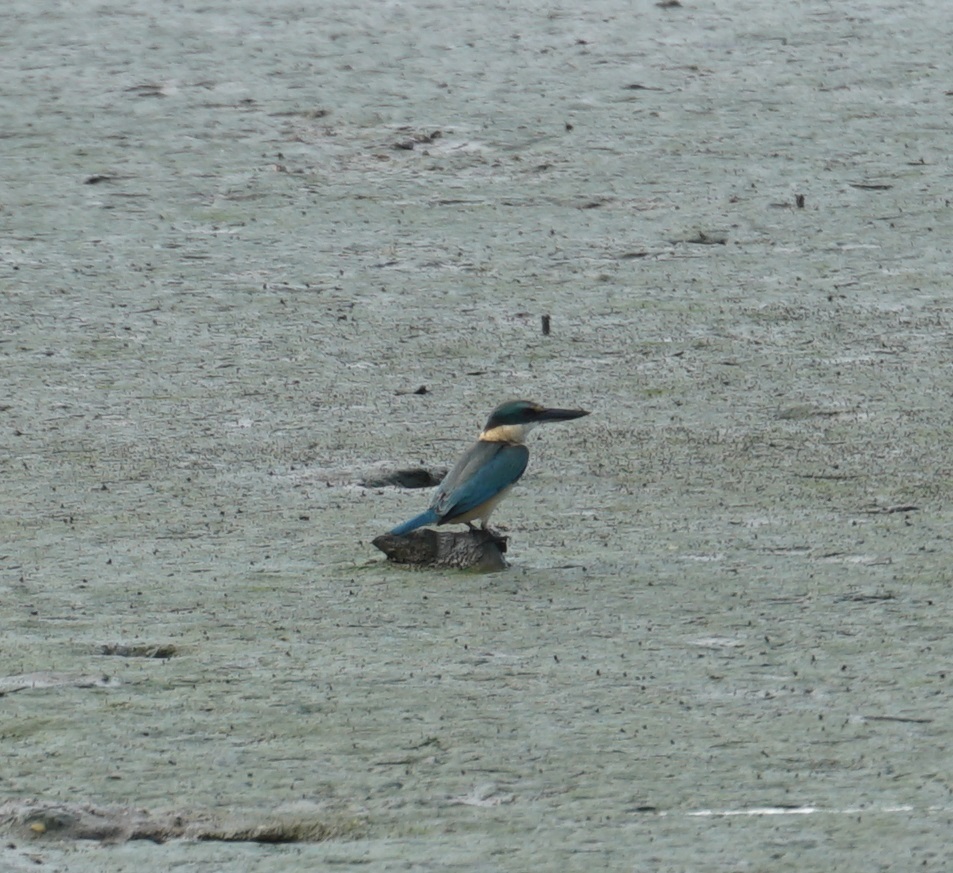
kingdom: Animalia
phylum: Chordata
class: Aves
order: Coraciiformes
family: Alcedinidae
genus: Todiramphus
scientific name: Todiramphus sanctus
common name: Sacred kingfisher
